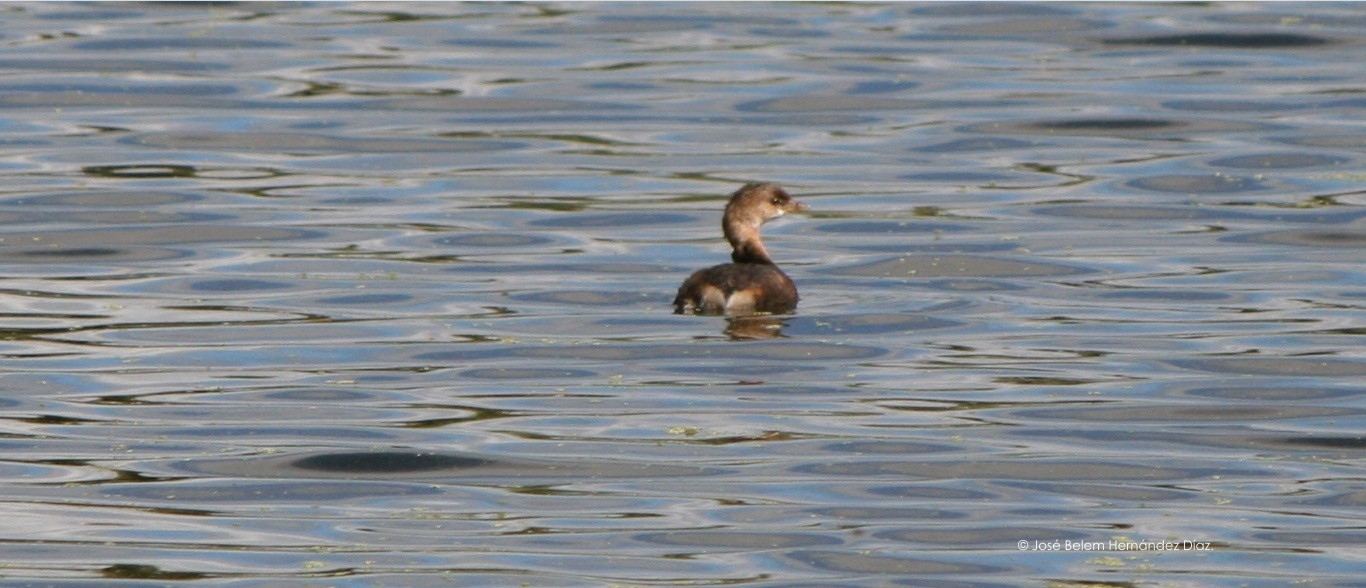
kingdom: Animalia
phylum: Chordata
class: Aves
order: Podicipediformes
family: Podicipedidae
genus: Podilymbus
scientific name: Podilymbus podiceps
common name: Pied-billed grebe
